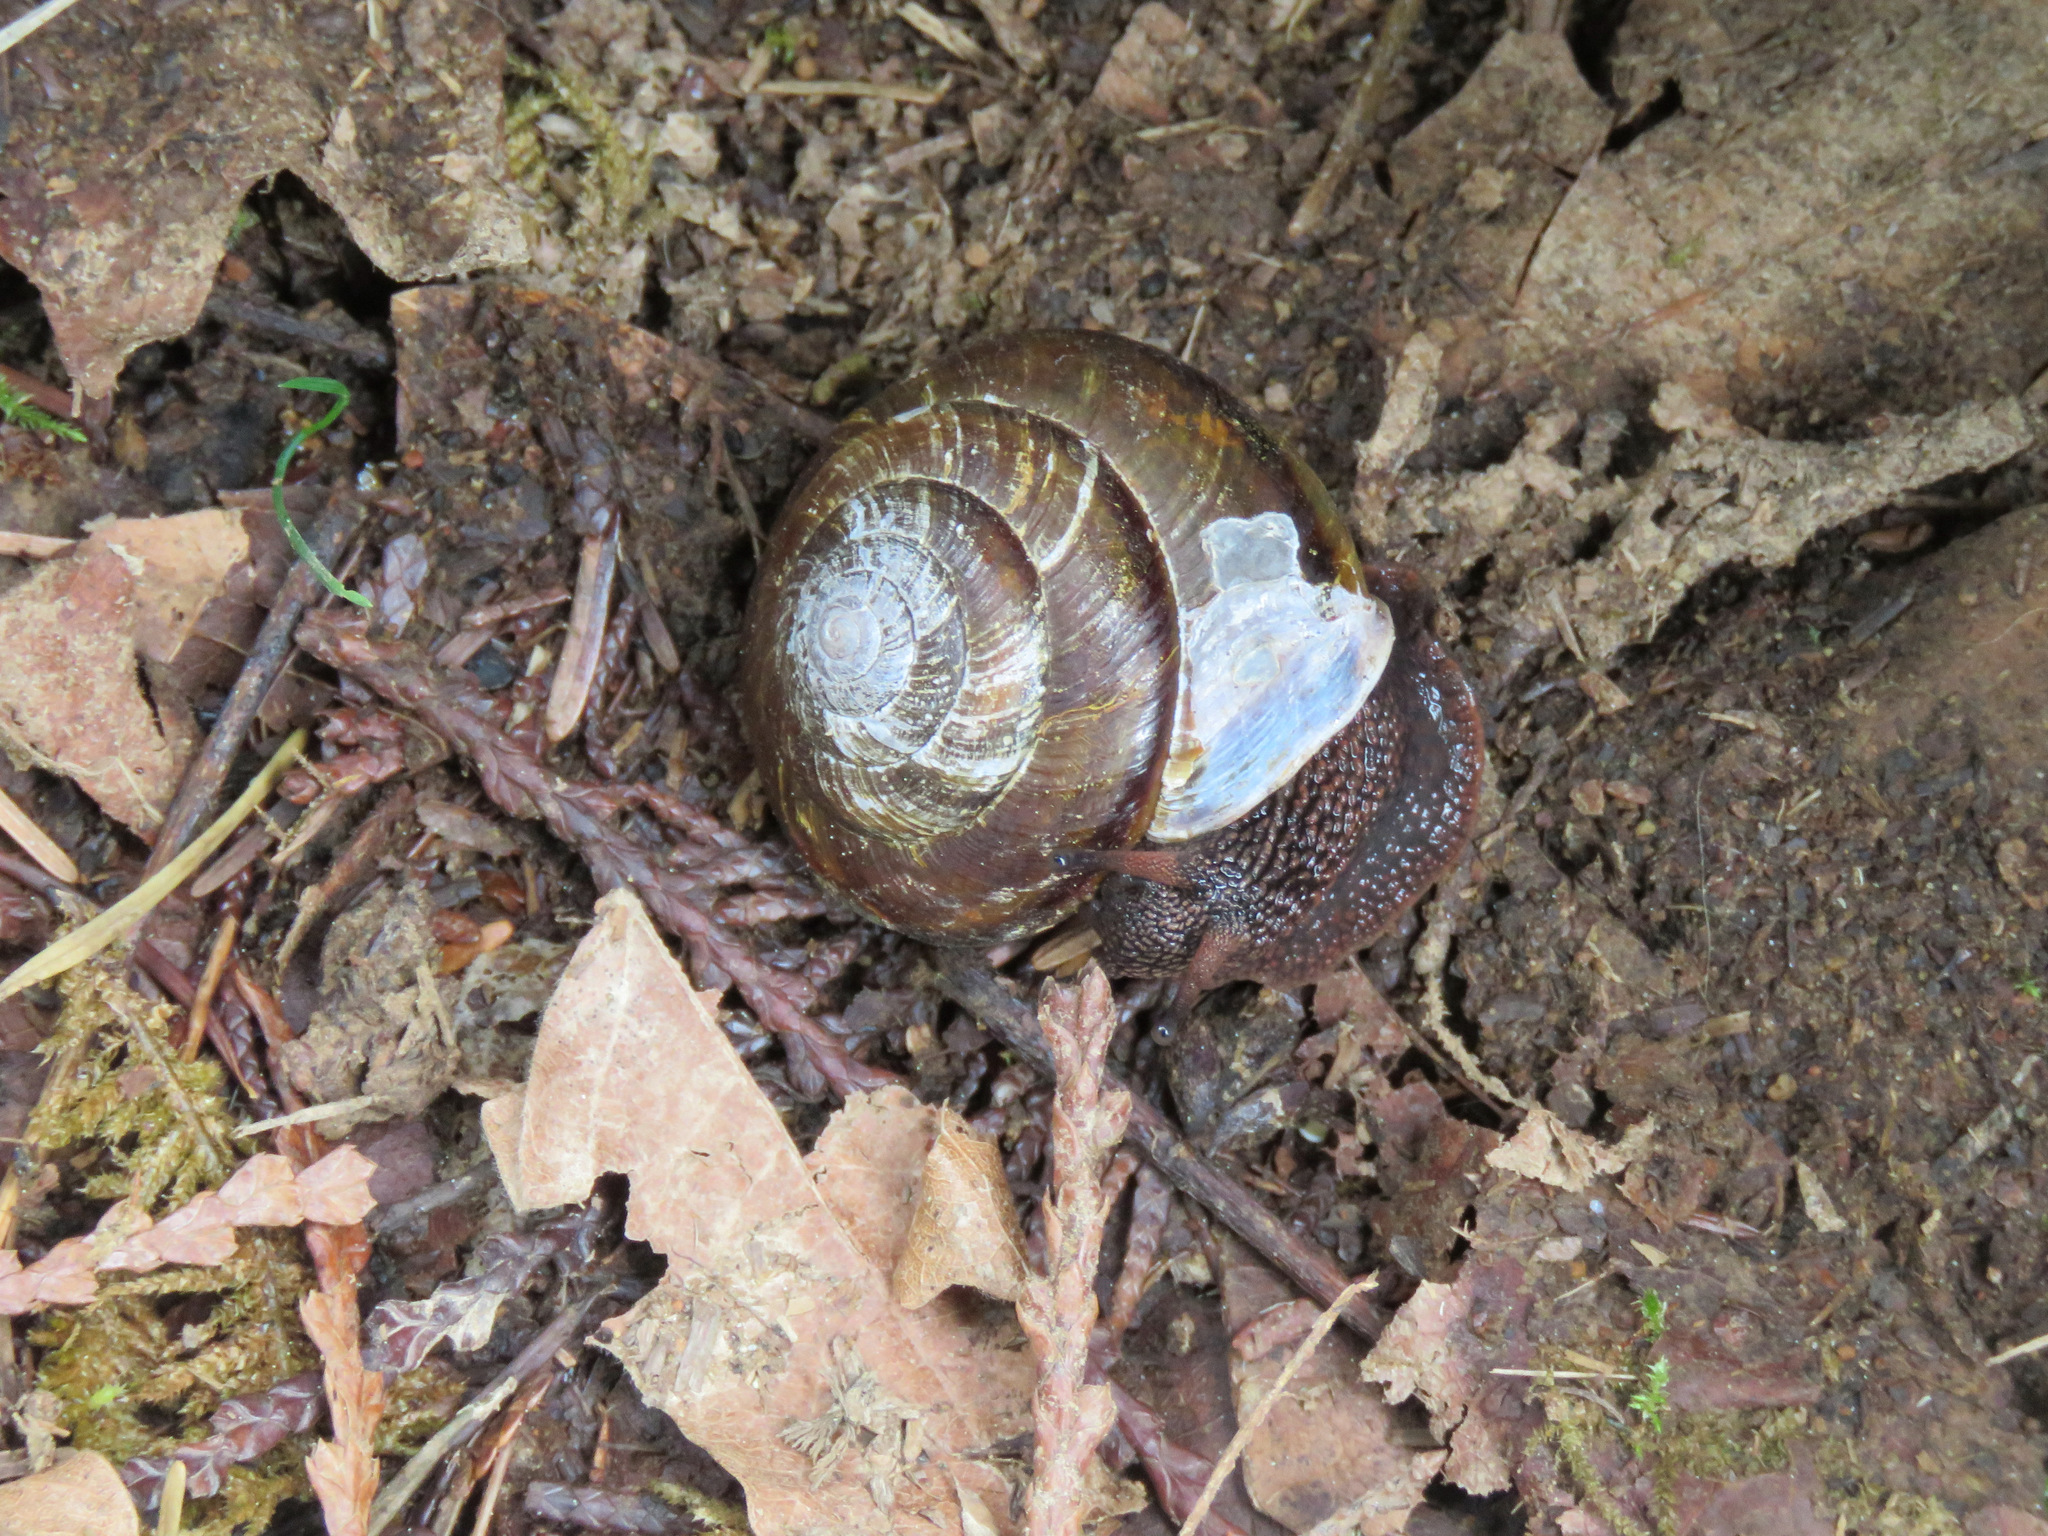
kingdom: Animalia
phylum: Mollusca
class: Gastropoda
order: Stylommatophora
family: Xanthonychidae
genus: Monadenia
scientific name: Monadenia fidelis
